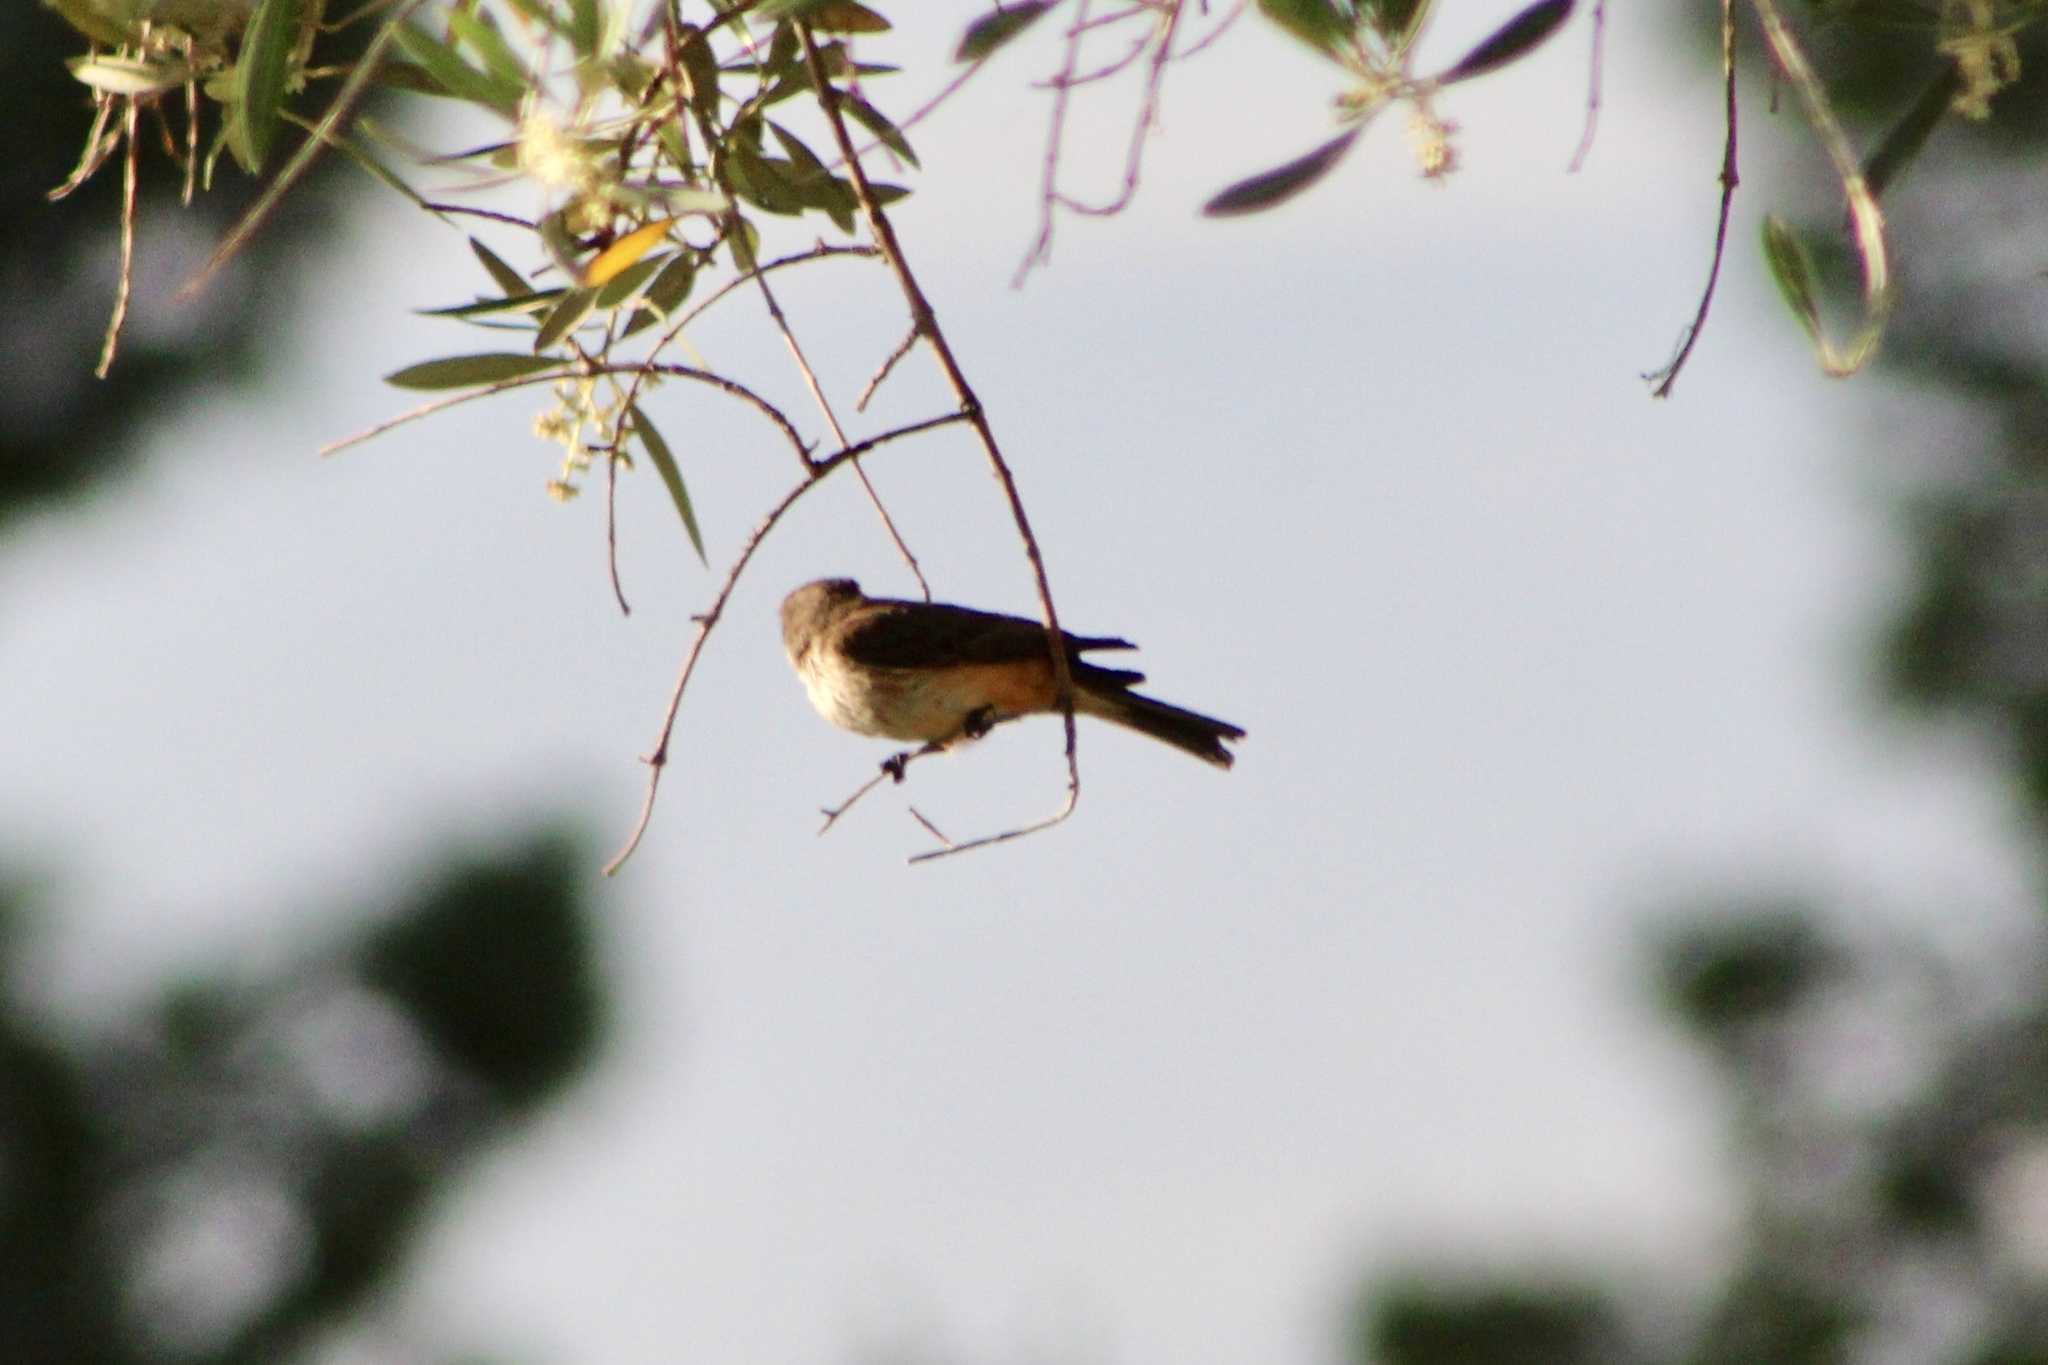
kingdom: Animalia
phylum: Chordata
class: Aves
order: Passeriformes
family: Tyrannidae
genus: Pyrocephalus
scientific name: Pyrocephalus rubinus
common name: Vermilion flycatcher
